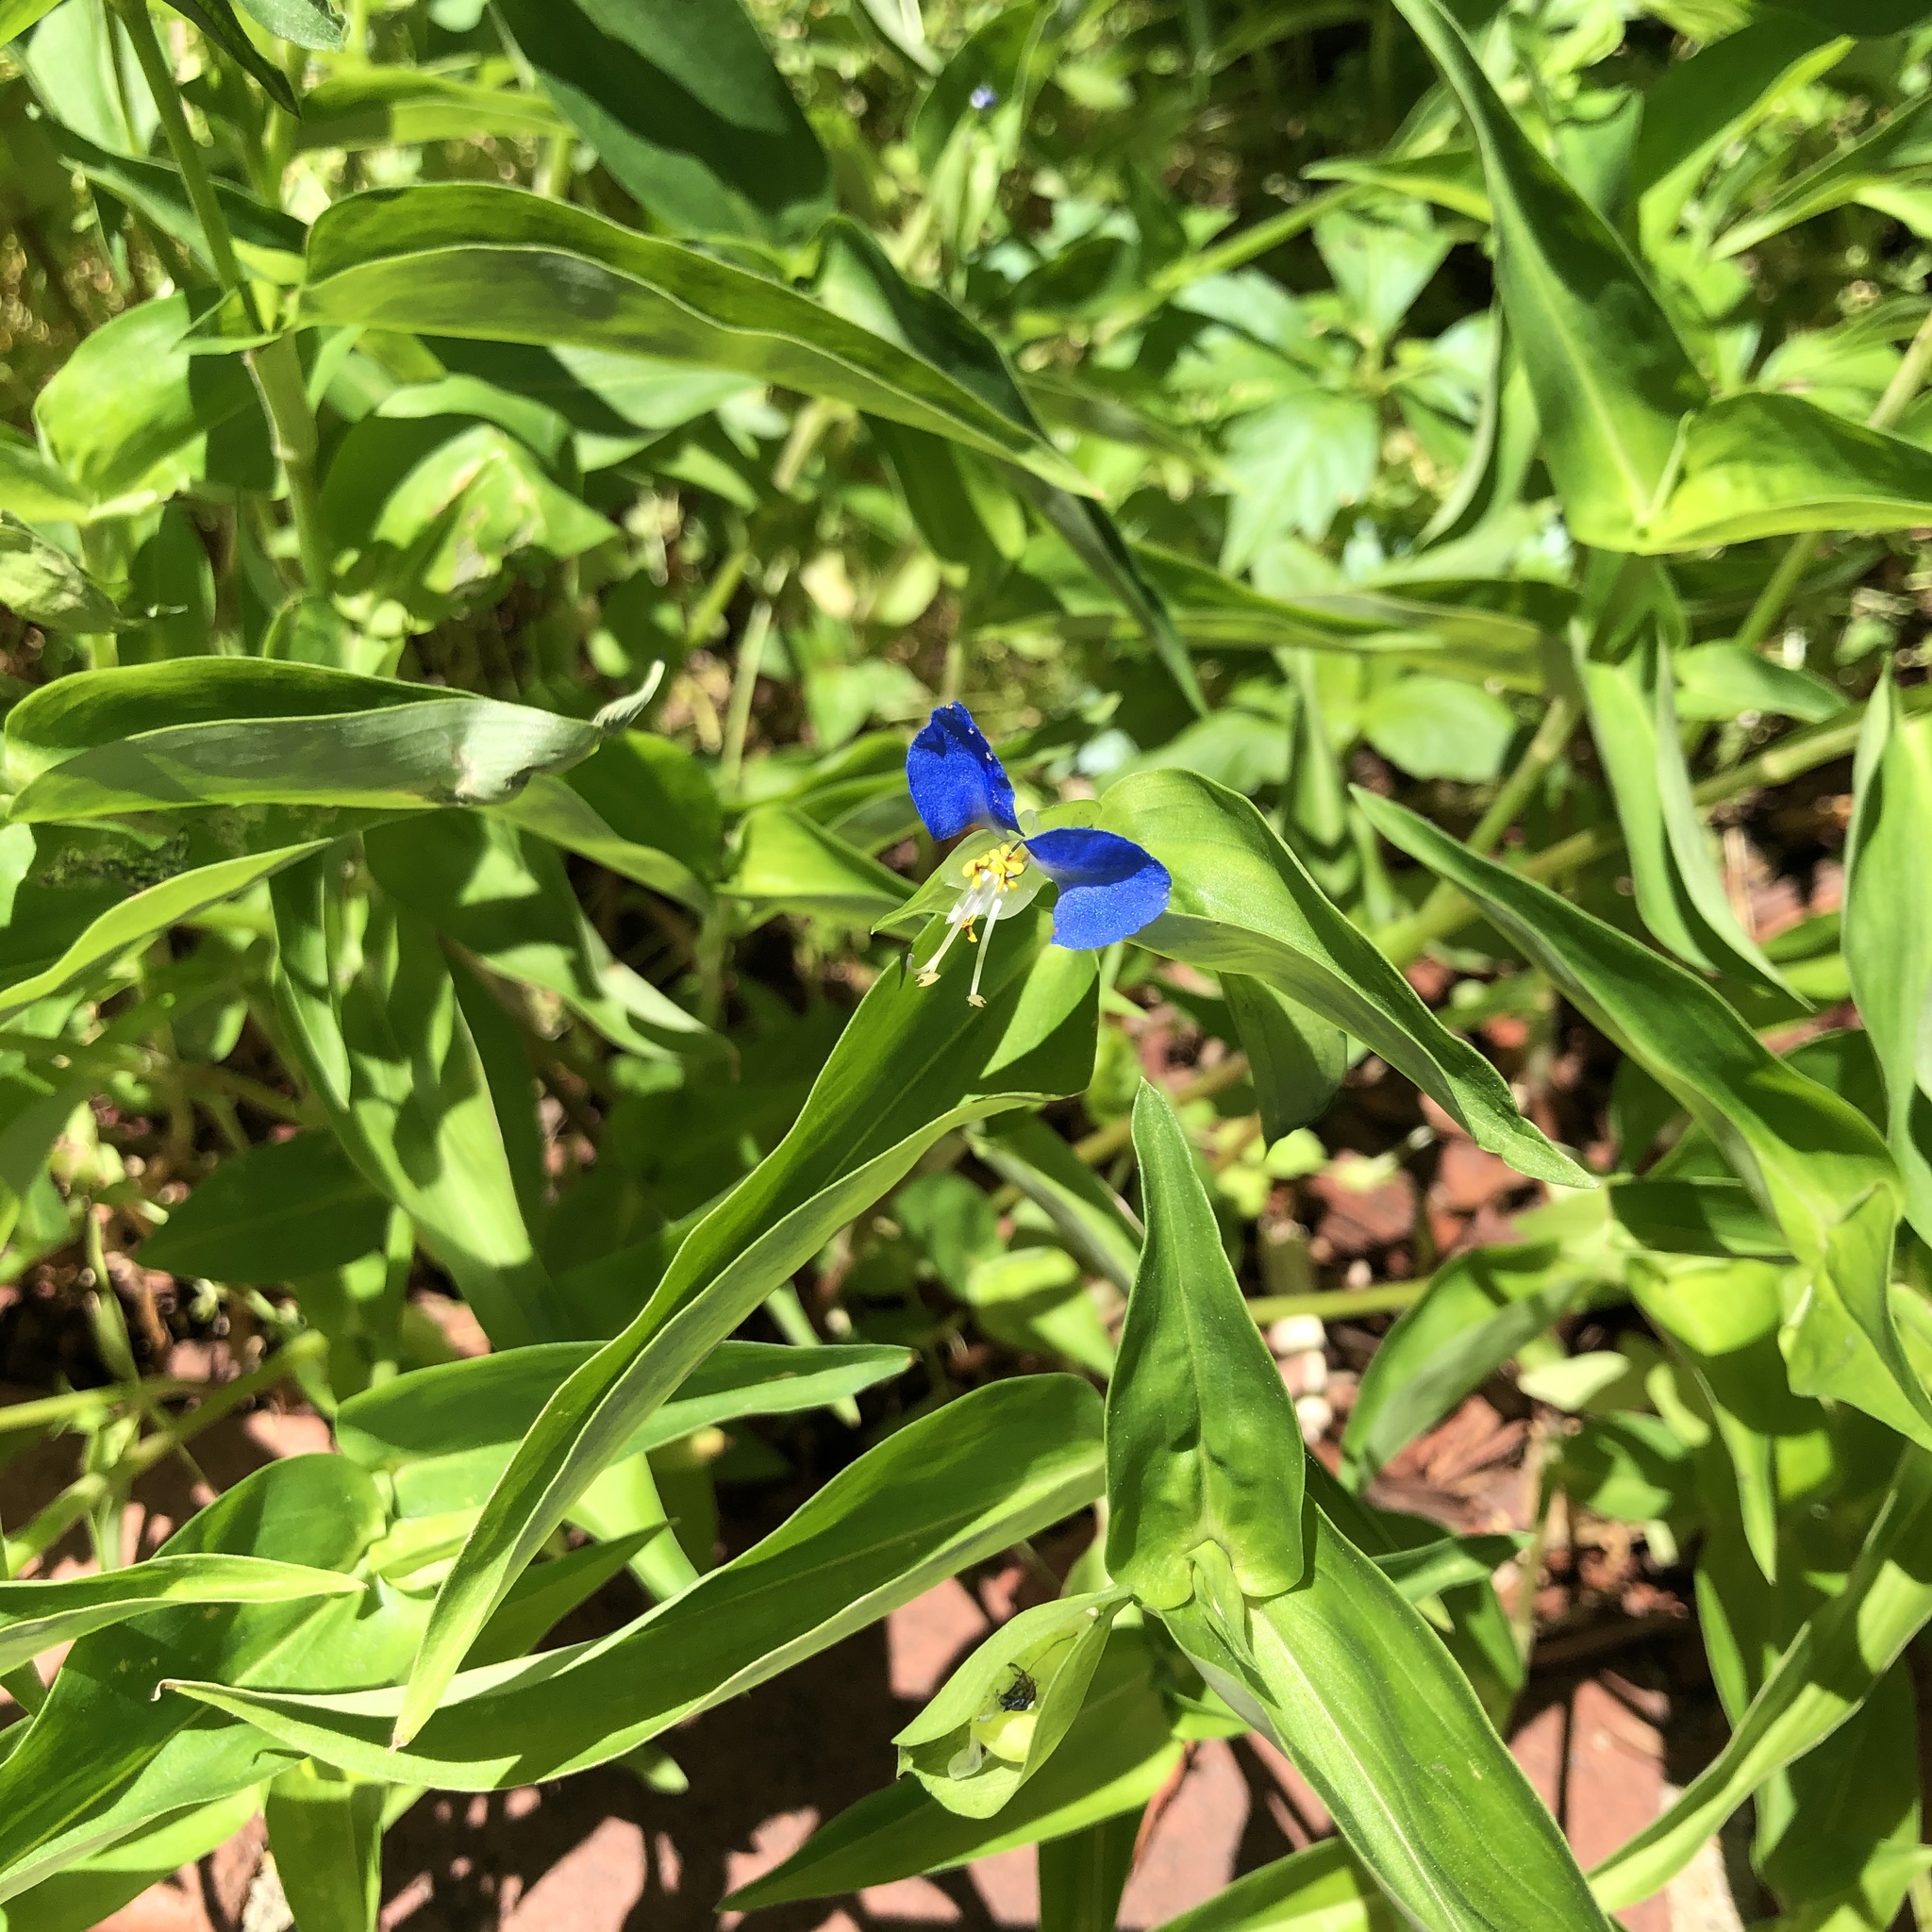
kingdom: Plantae
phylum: Tracheophyta
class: Liliopsida
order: Commelinales
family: Commelinaceae
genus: Commelina
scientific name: Commelina communis
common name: Asiatic dayflower
